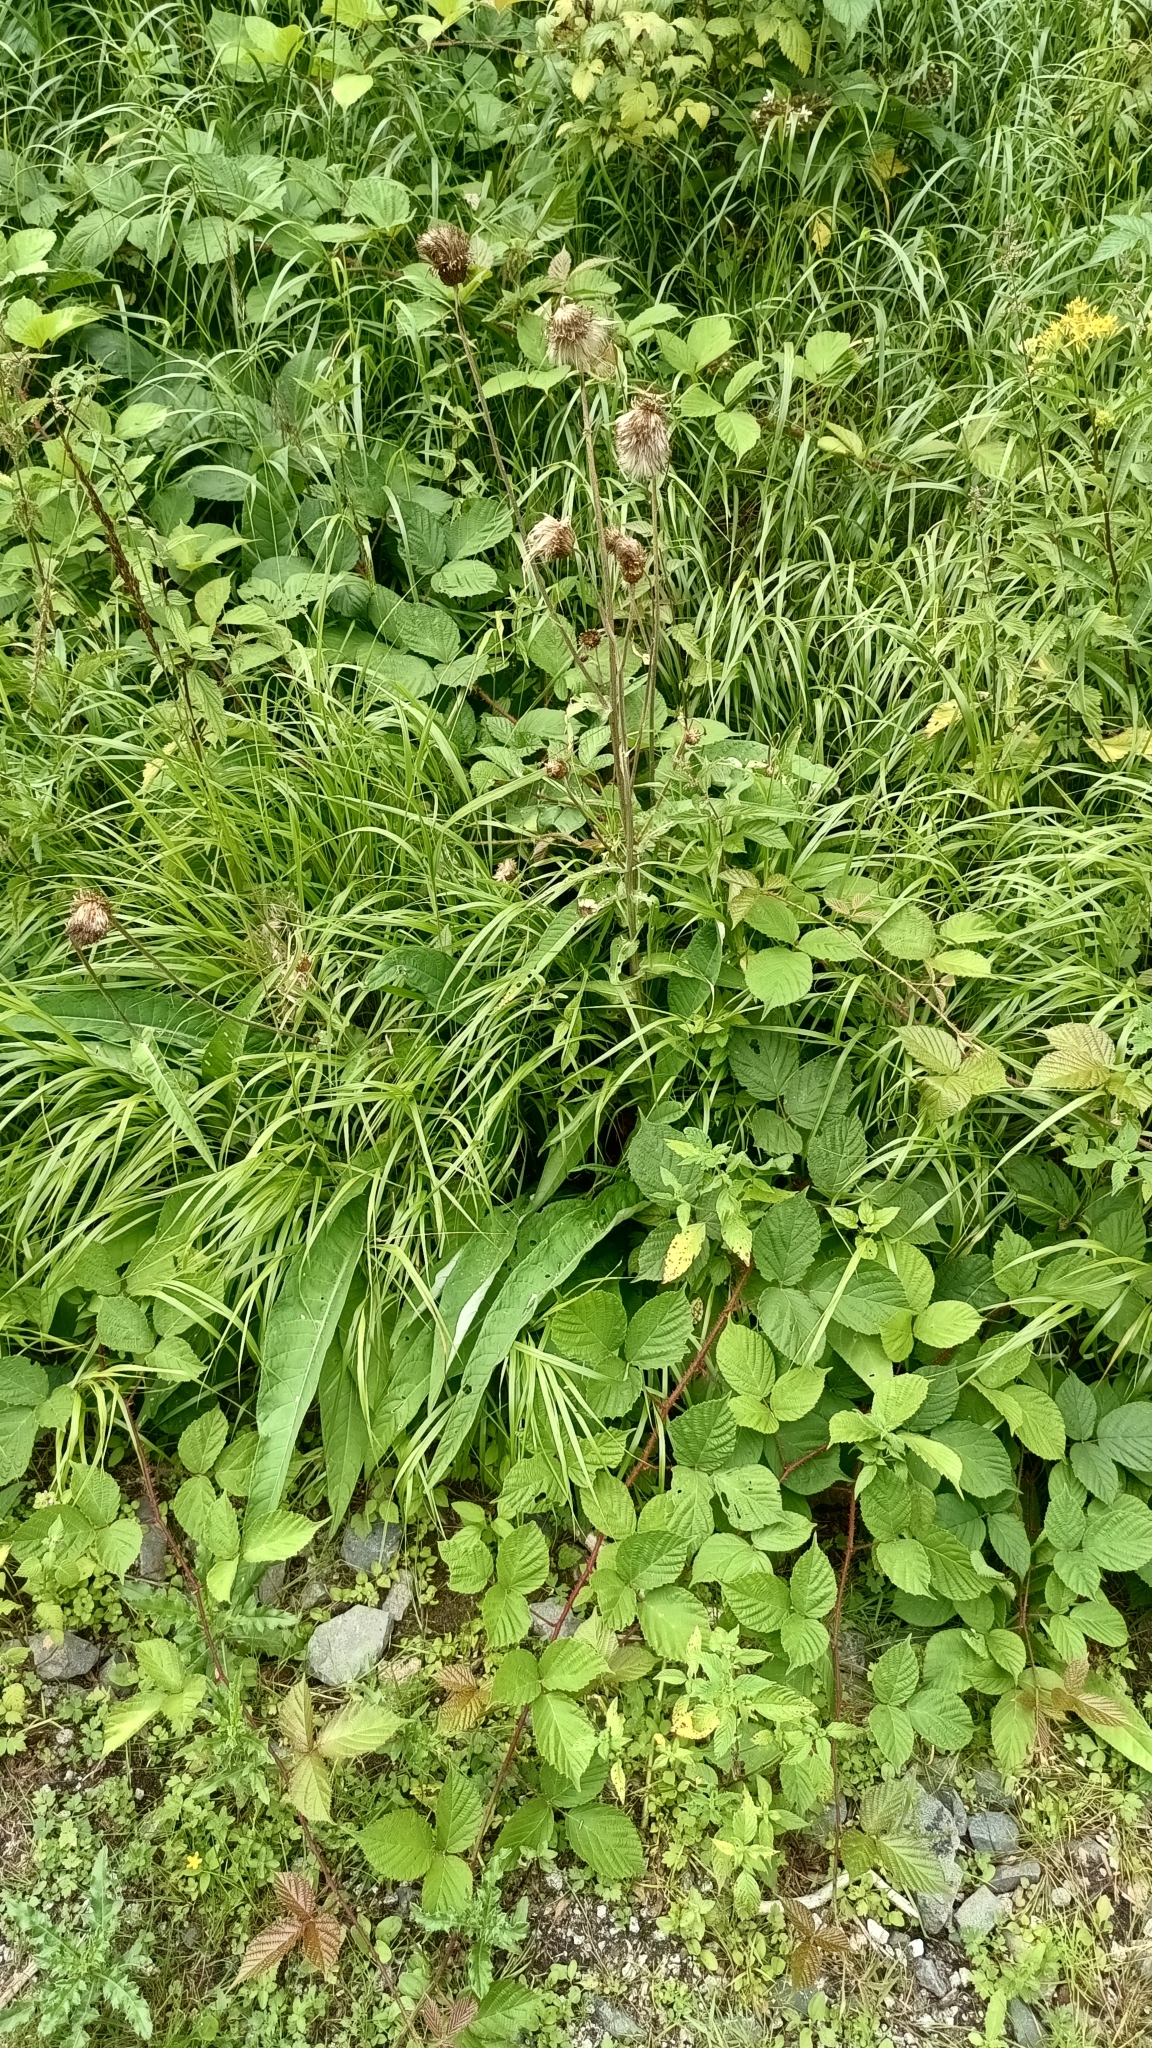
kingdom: Plantae
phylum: Tracheophyta
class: Magnoliopsida
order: Asterales
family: Asteraceae
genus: Cirsium
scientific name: Cirsium heterophyllum
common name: Melancholy thistle
